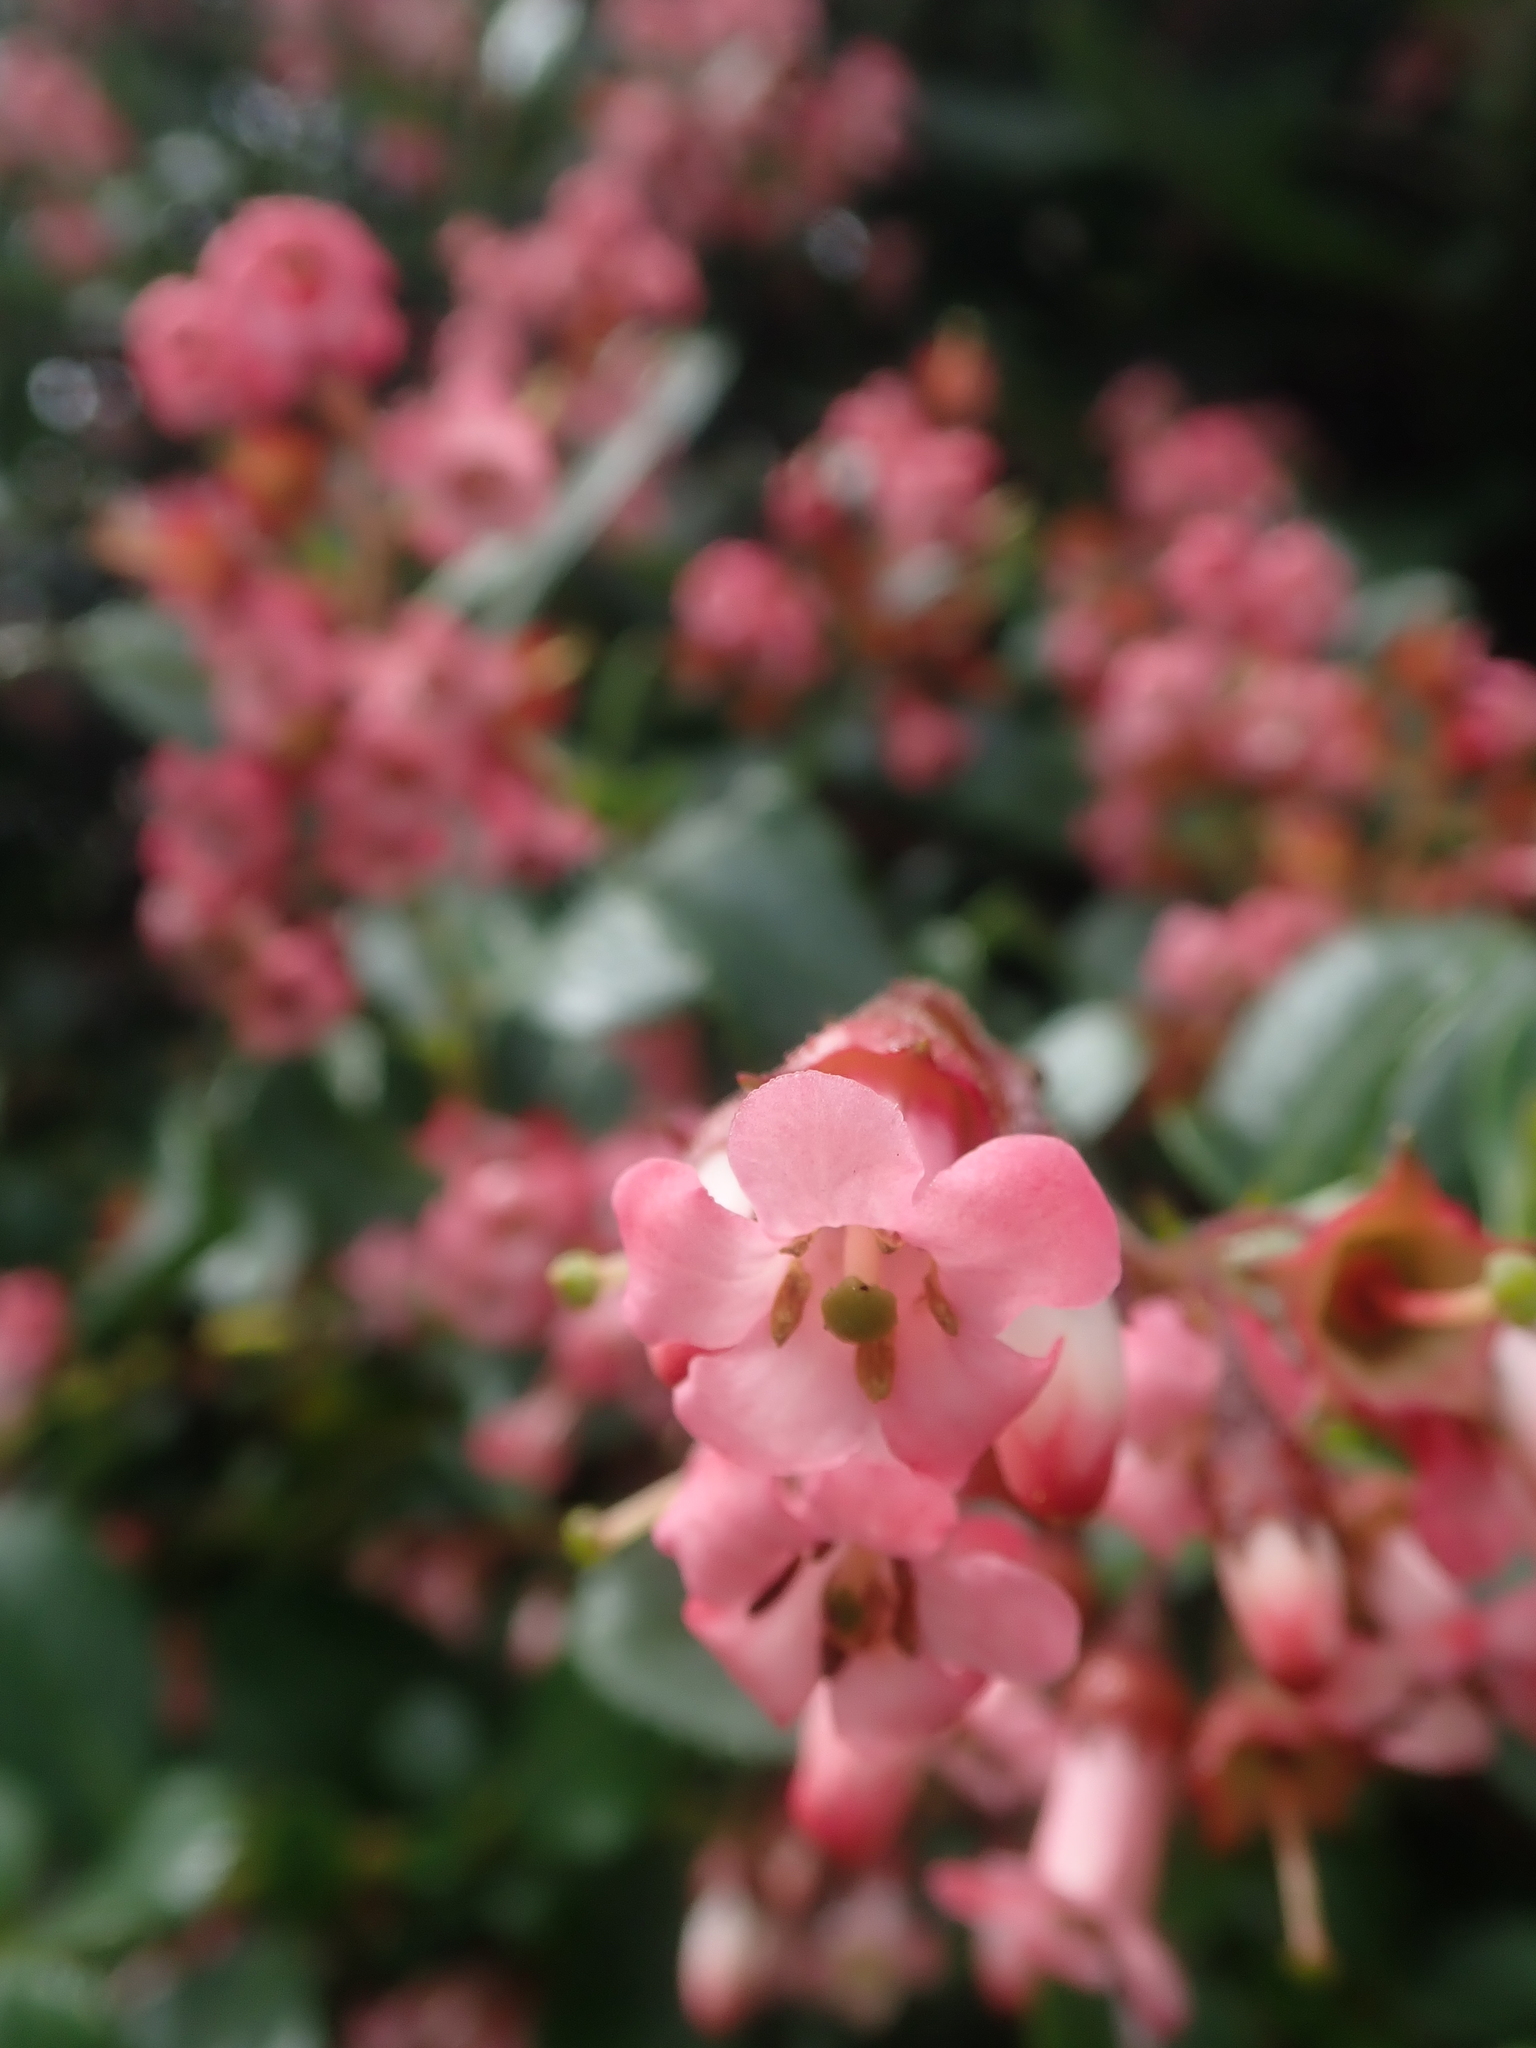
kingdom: Plantae
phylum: Tracheophyta
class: Magnoliopsida
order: Escalloniales
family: Escalloniaceae
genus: Escallonia
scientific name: Escallonia rubra
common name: Redclaws
